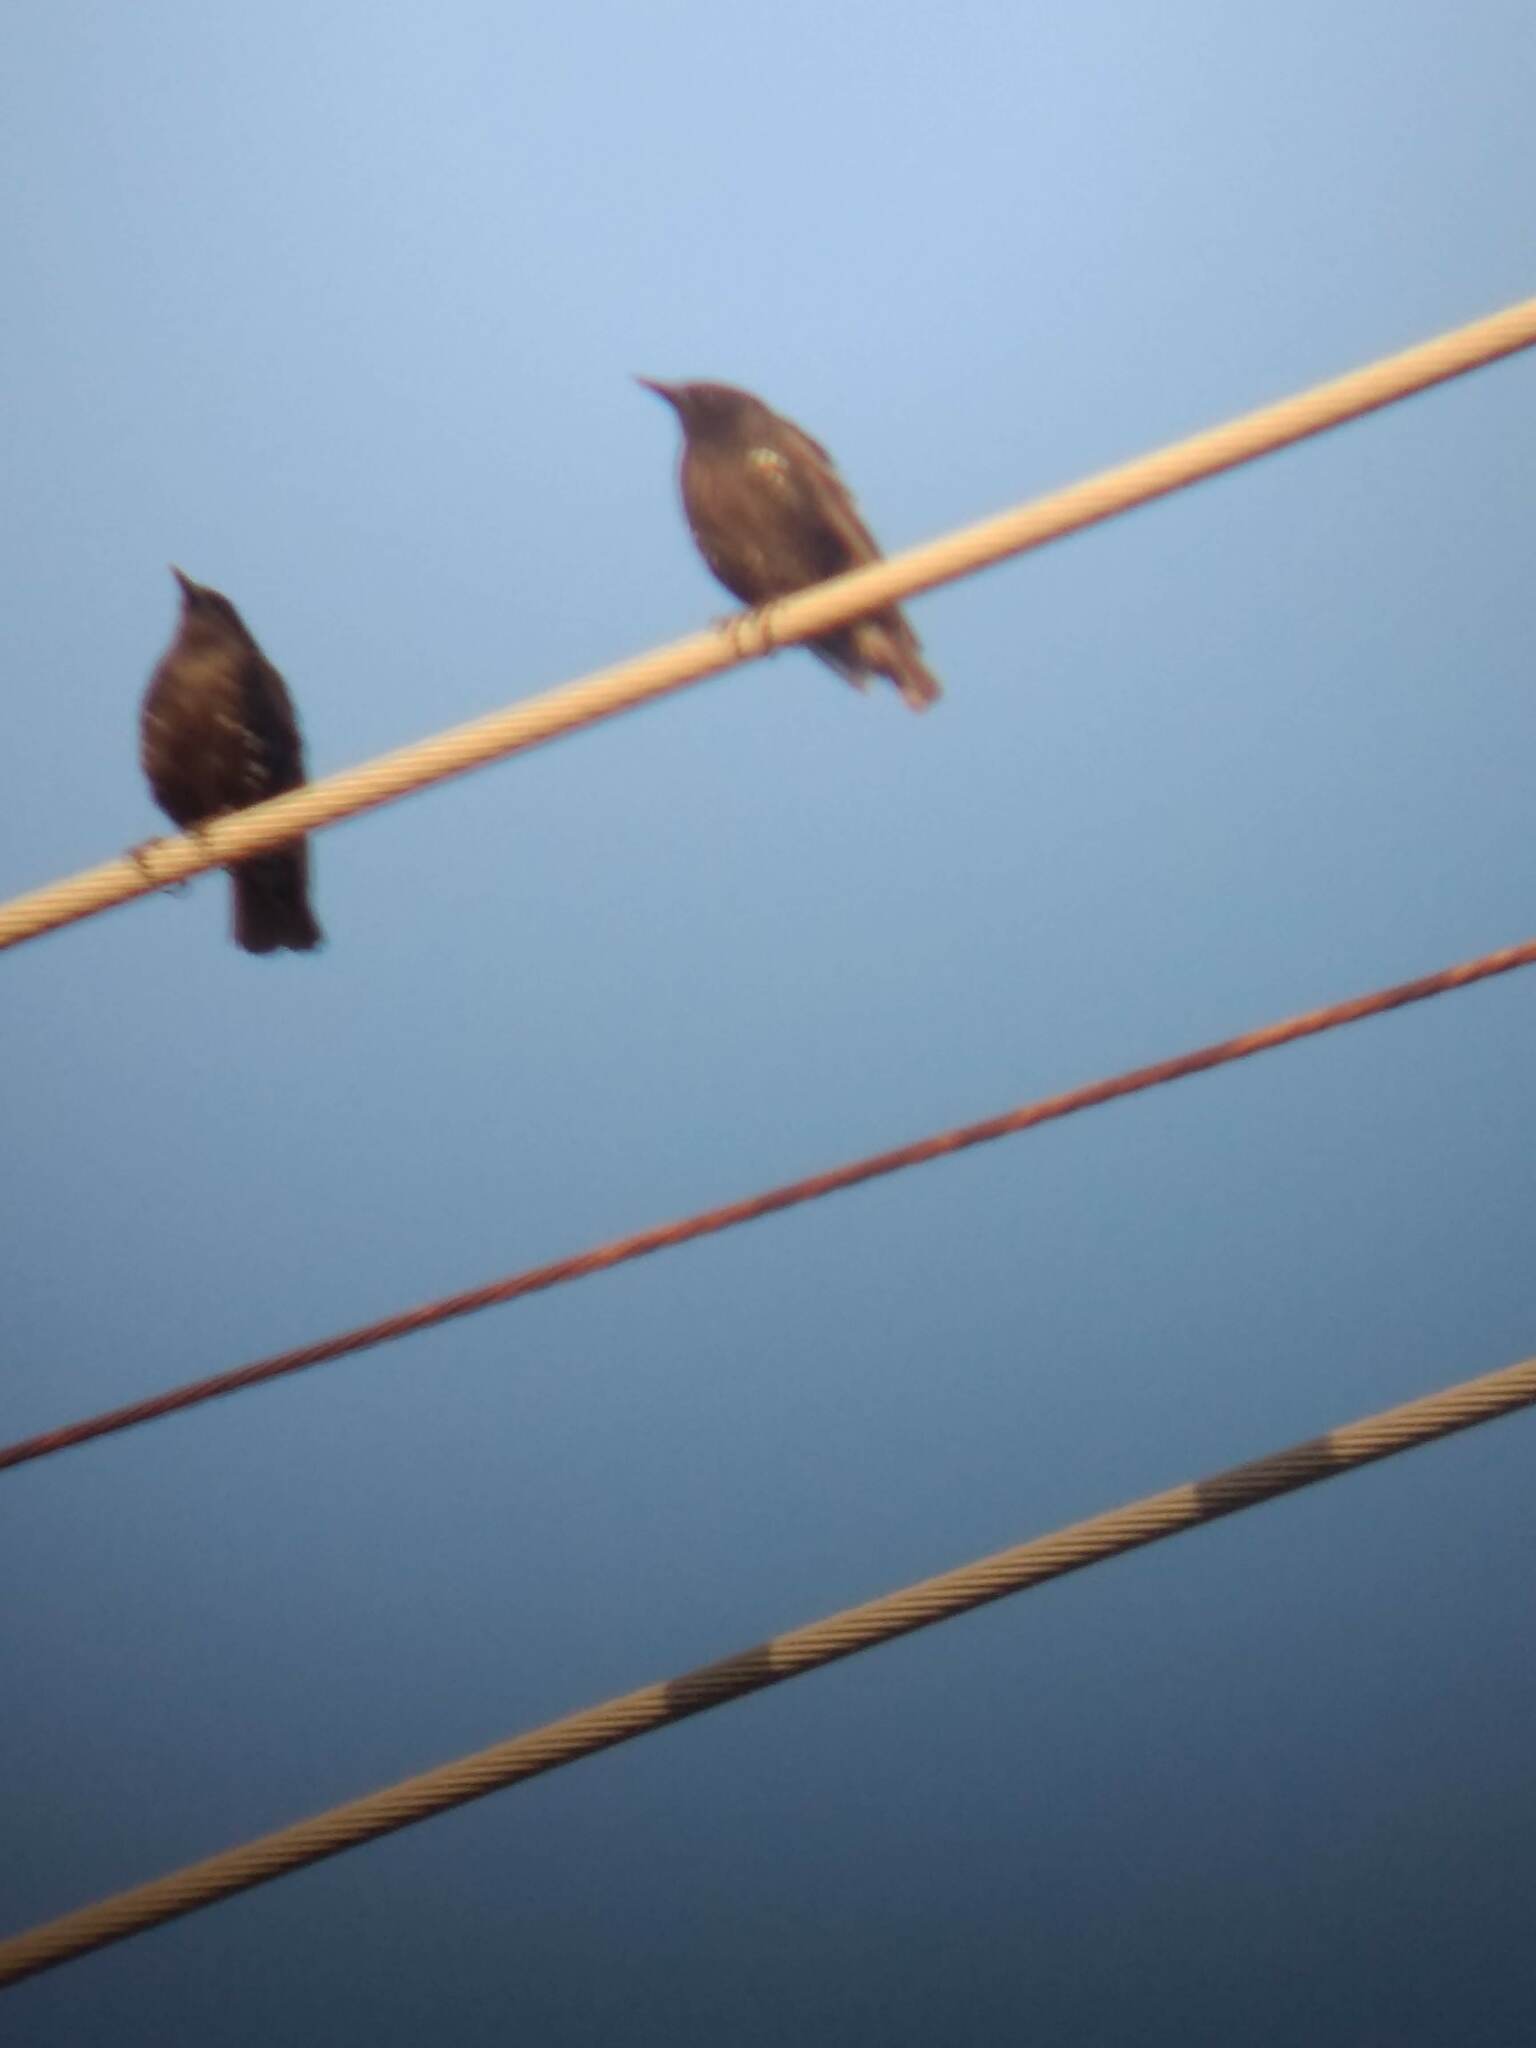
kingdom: Animalia
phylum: Chordata
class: Aves
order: Passeriformes
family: Sturnidae
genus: Sturnus
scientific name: Sturnus vulgaris
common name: Common starling
